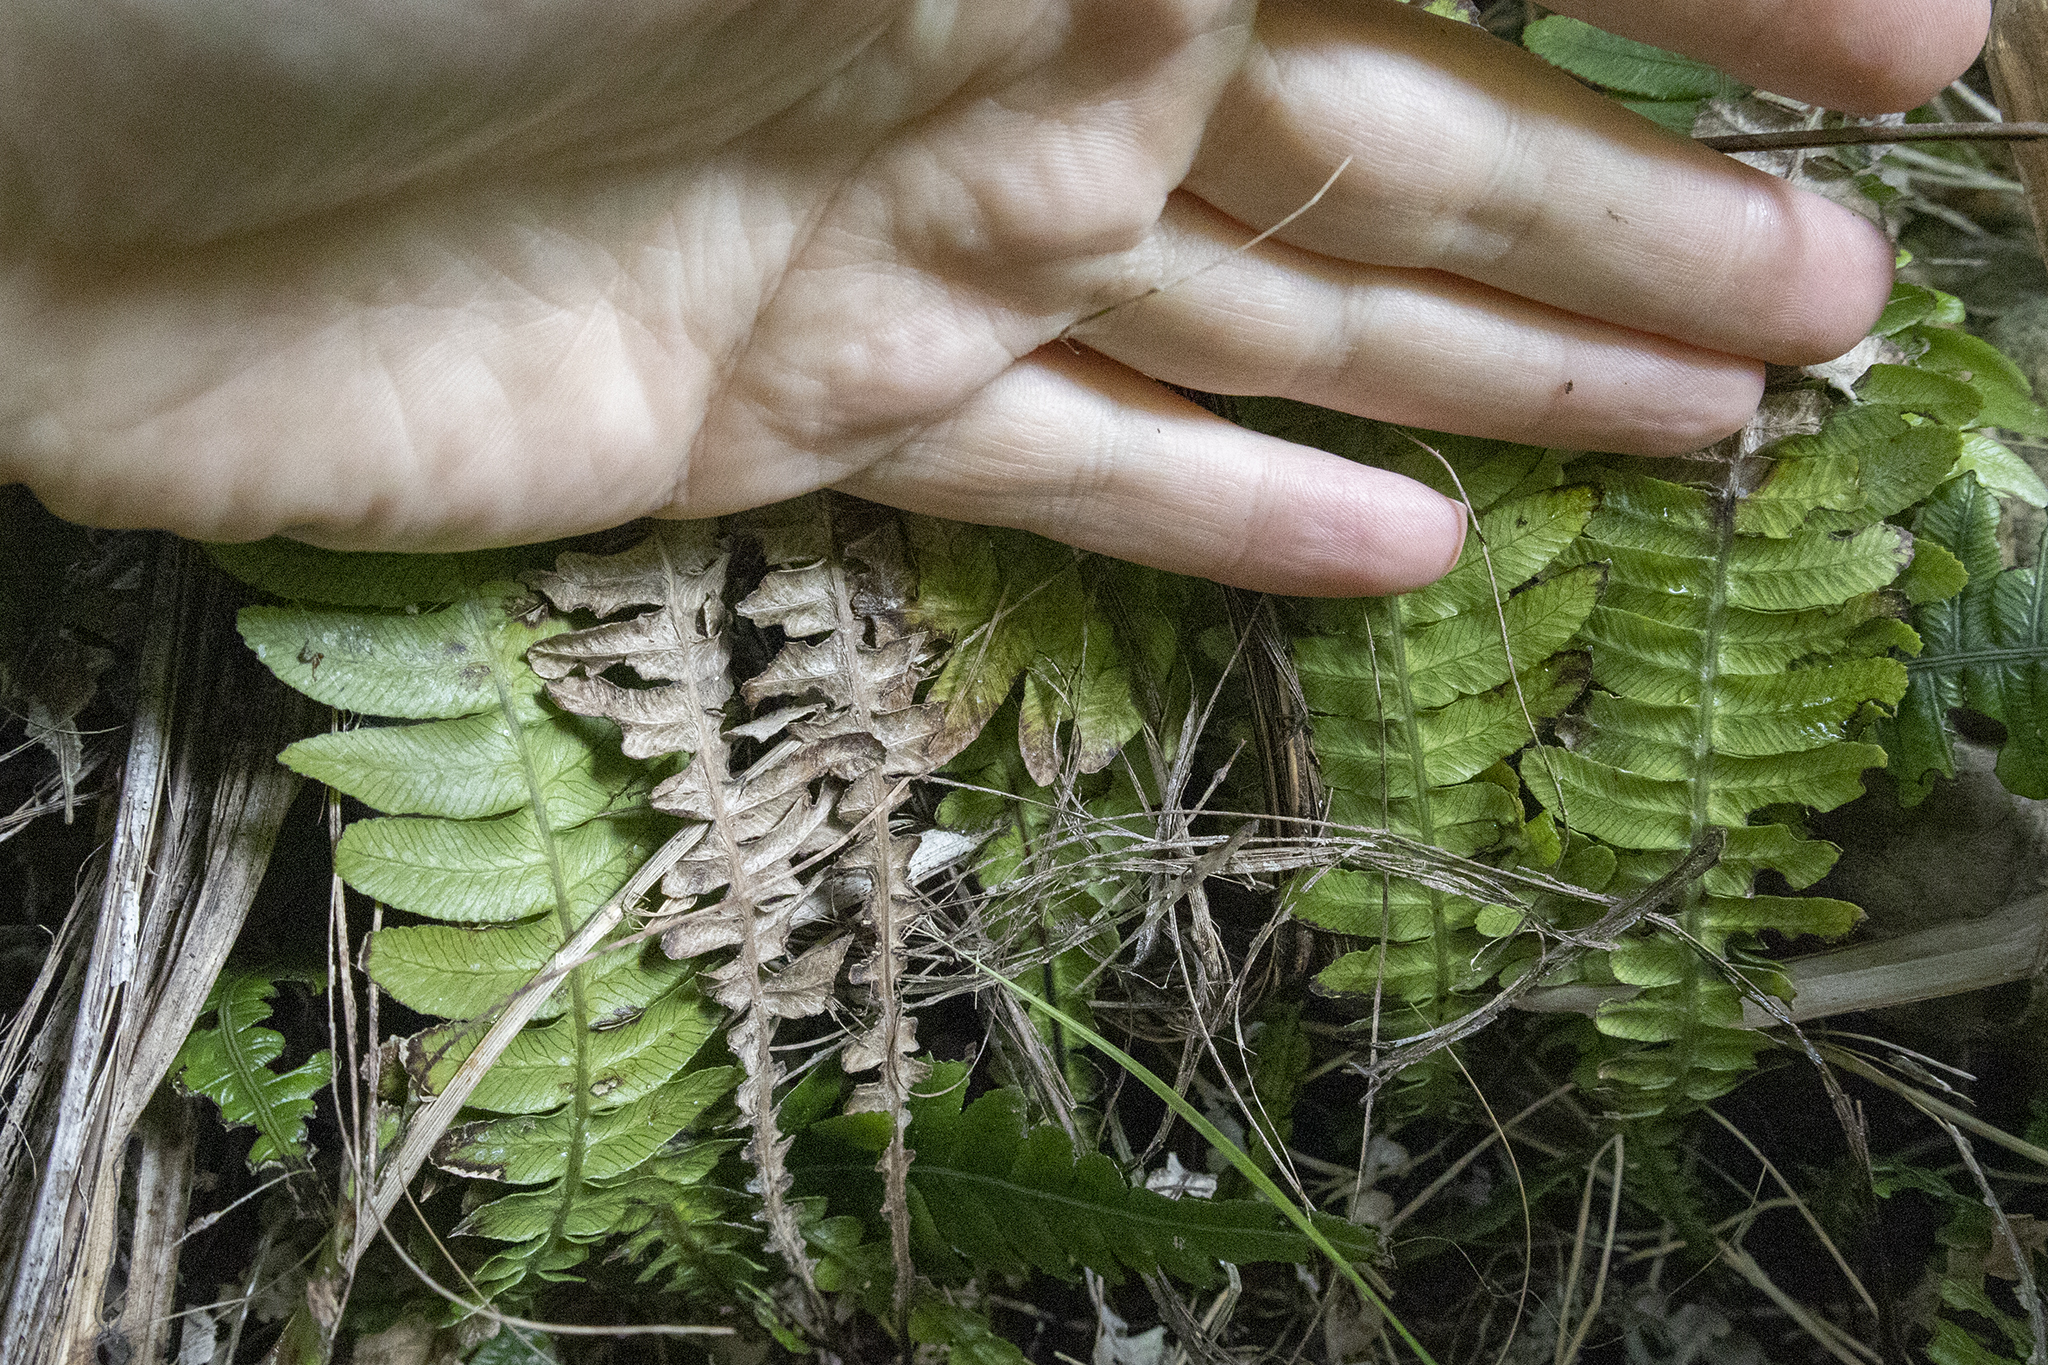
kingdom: Plantae
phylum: Tracheophyta
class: Polypodiopsida
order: Polypodiales
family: Blechnaceae
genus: Austroblechnum
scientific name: Austroblechnum lanceolatum
